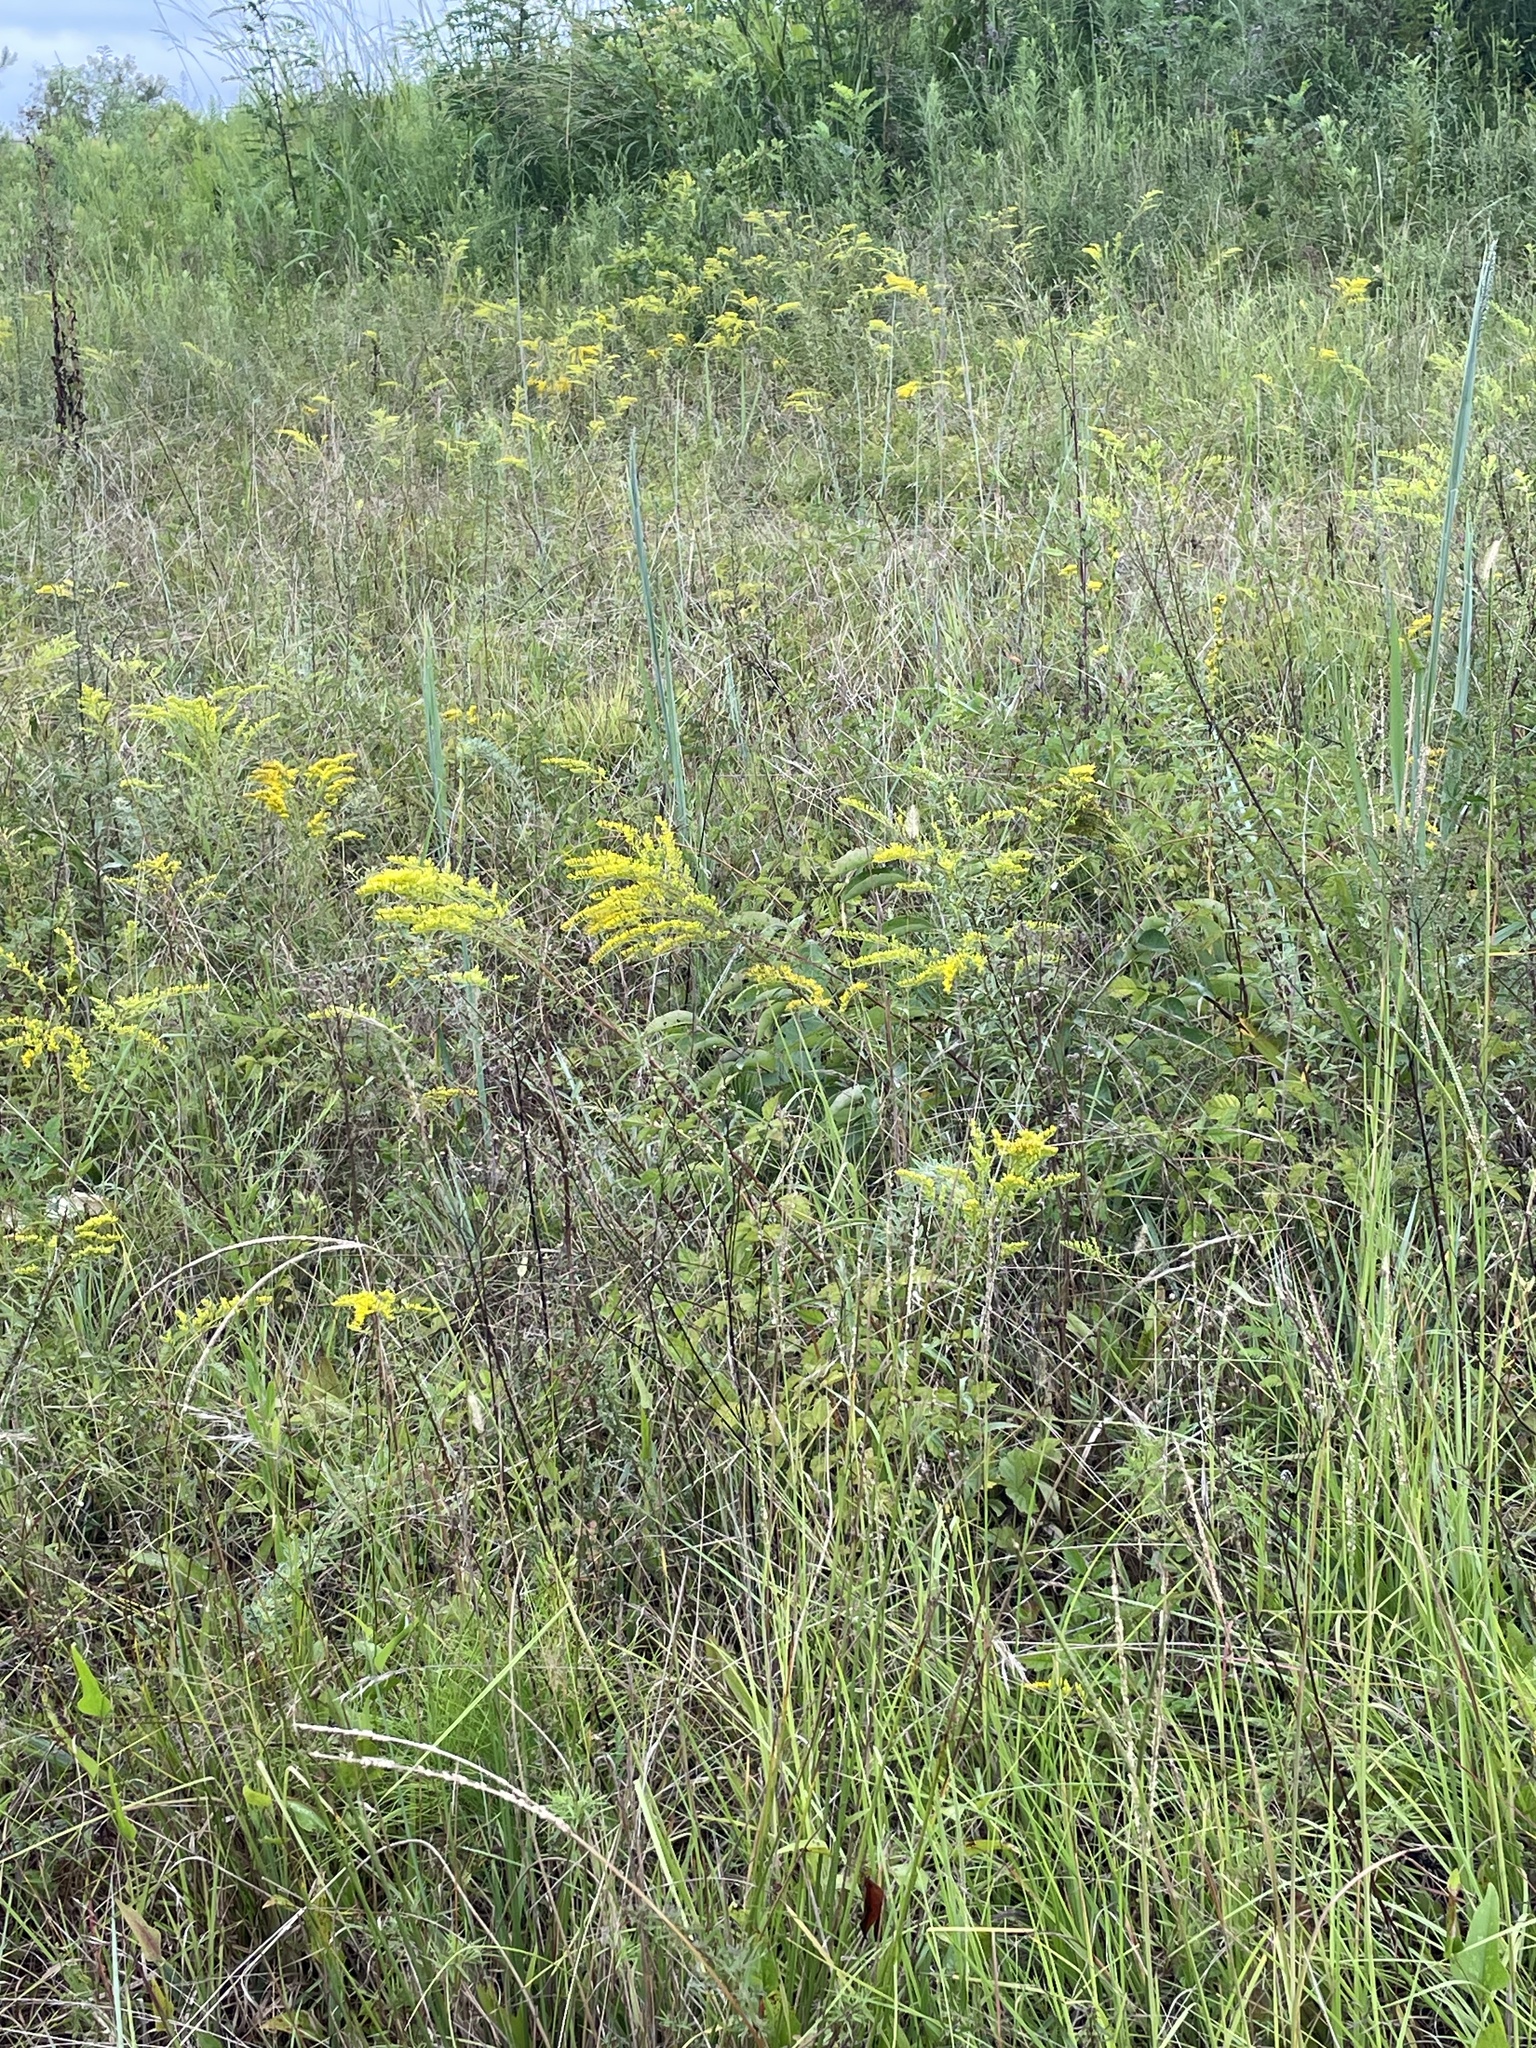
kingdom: Plantae
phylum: Tracheophyta
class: Magnoliopsida
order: Asterales
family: Asteraceae
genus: Solidago
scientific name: Solidago pinetorum
